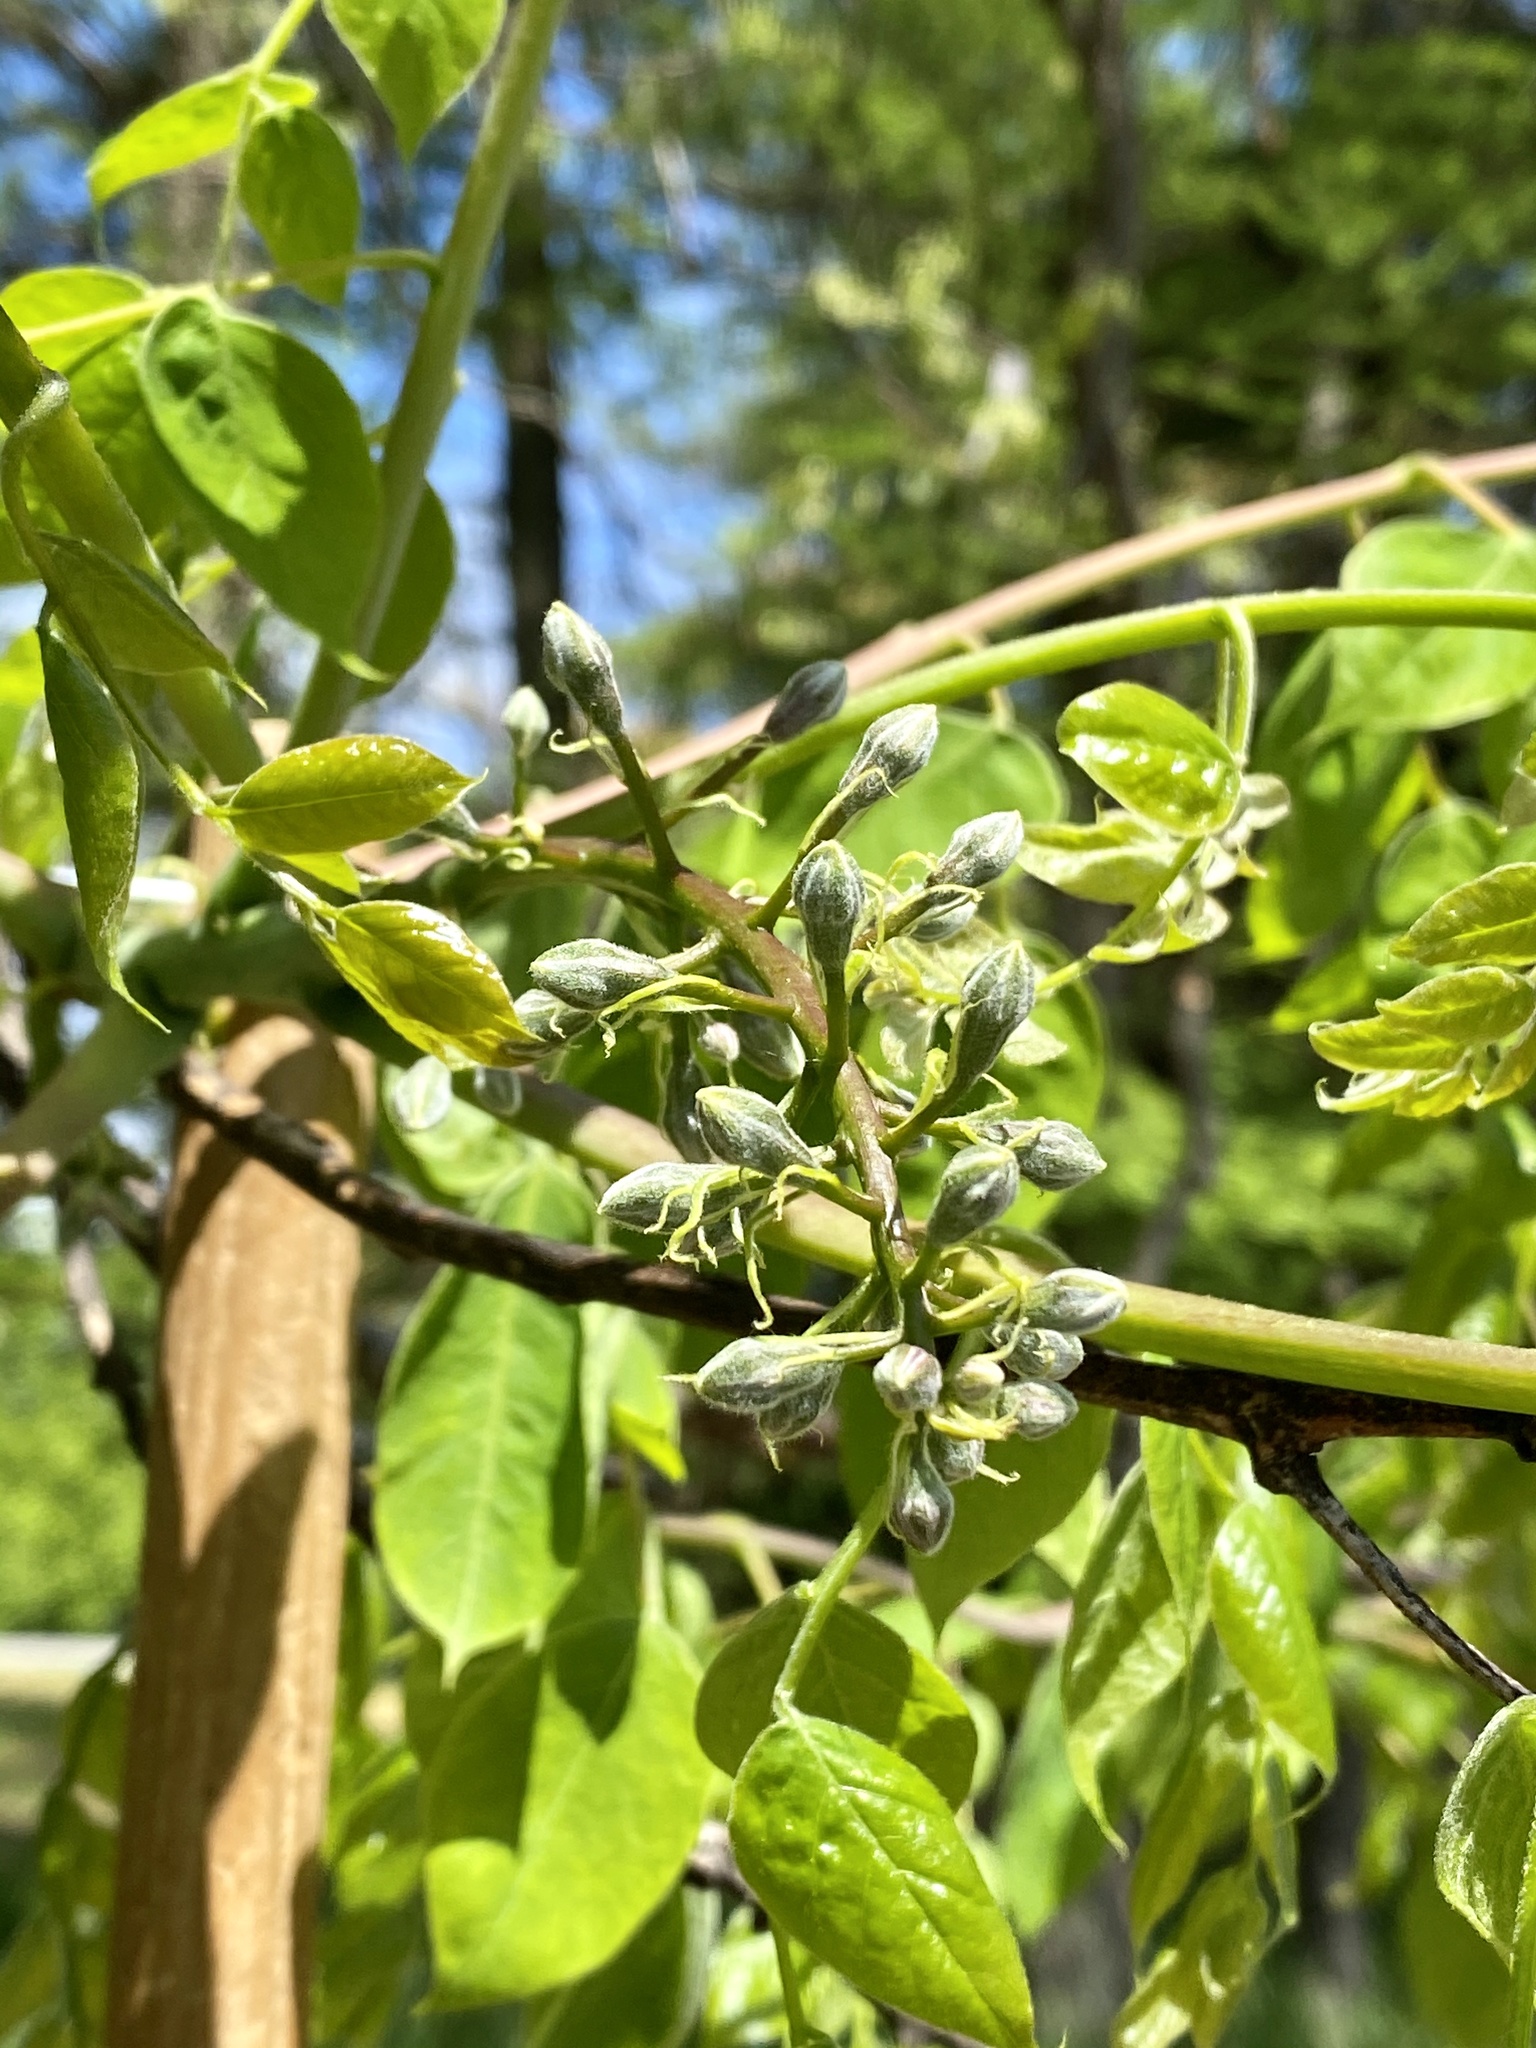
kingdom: Plantae
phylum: Tracheophyta
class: Magnoliopsida
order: Fabales
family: Fabaceae
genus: Gymnocladus
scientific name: Gymnocladus dioicus
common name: Kentucky coffee-tree
